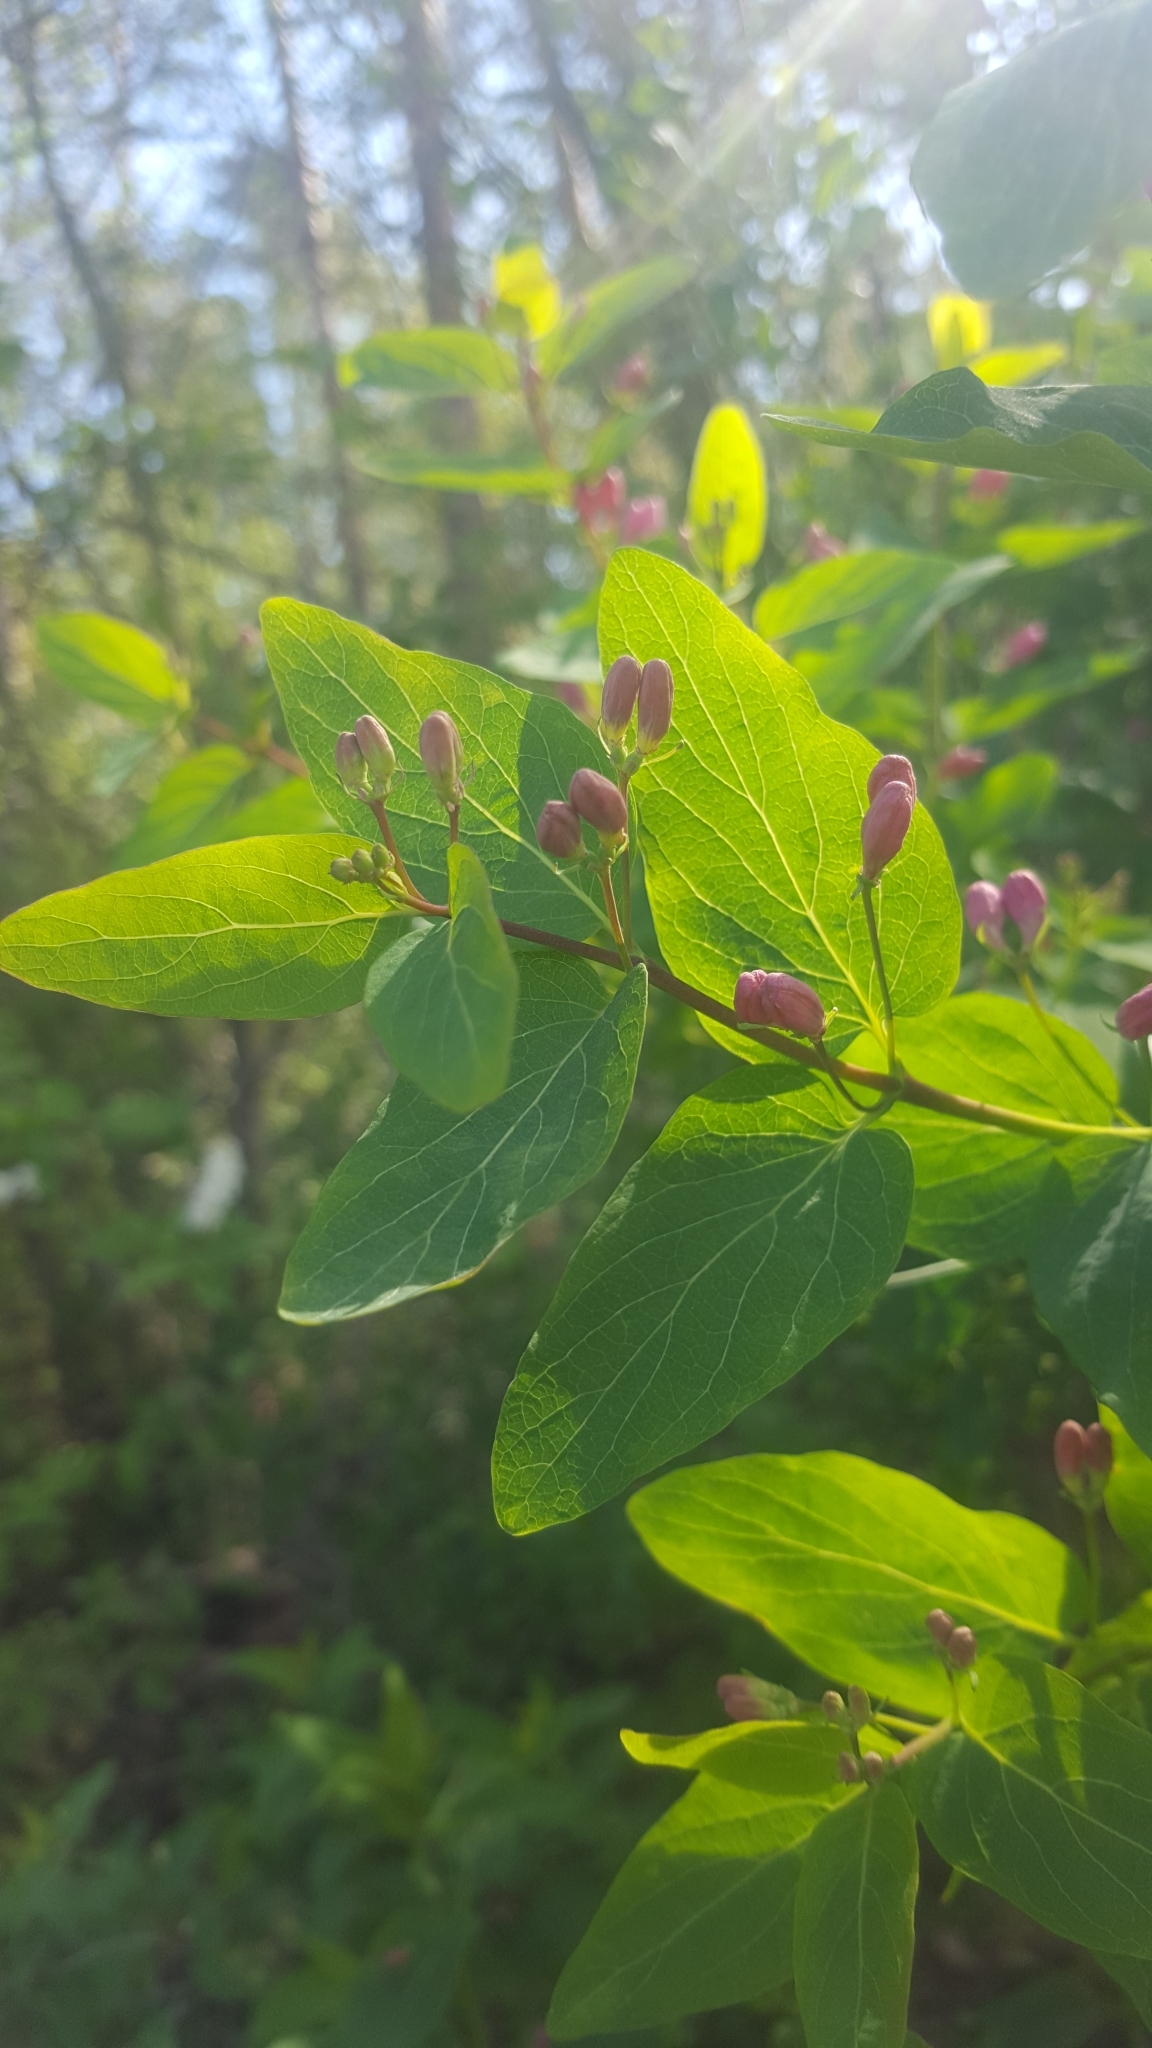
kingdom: Plantae
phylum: Tracheophyta
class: Magnoliopsida
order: Dipsacales
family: Caprifoliaceae
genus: Lonicera
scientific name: Lonicera tatarica
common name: Tatarian honeysuckle
